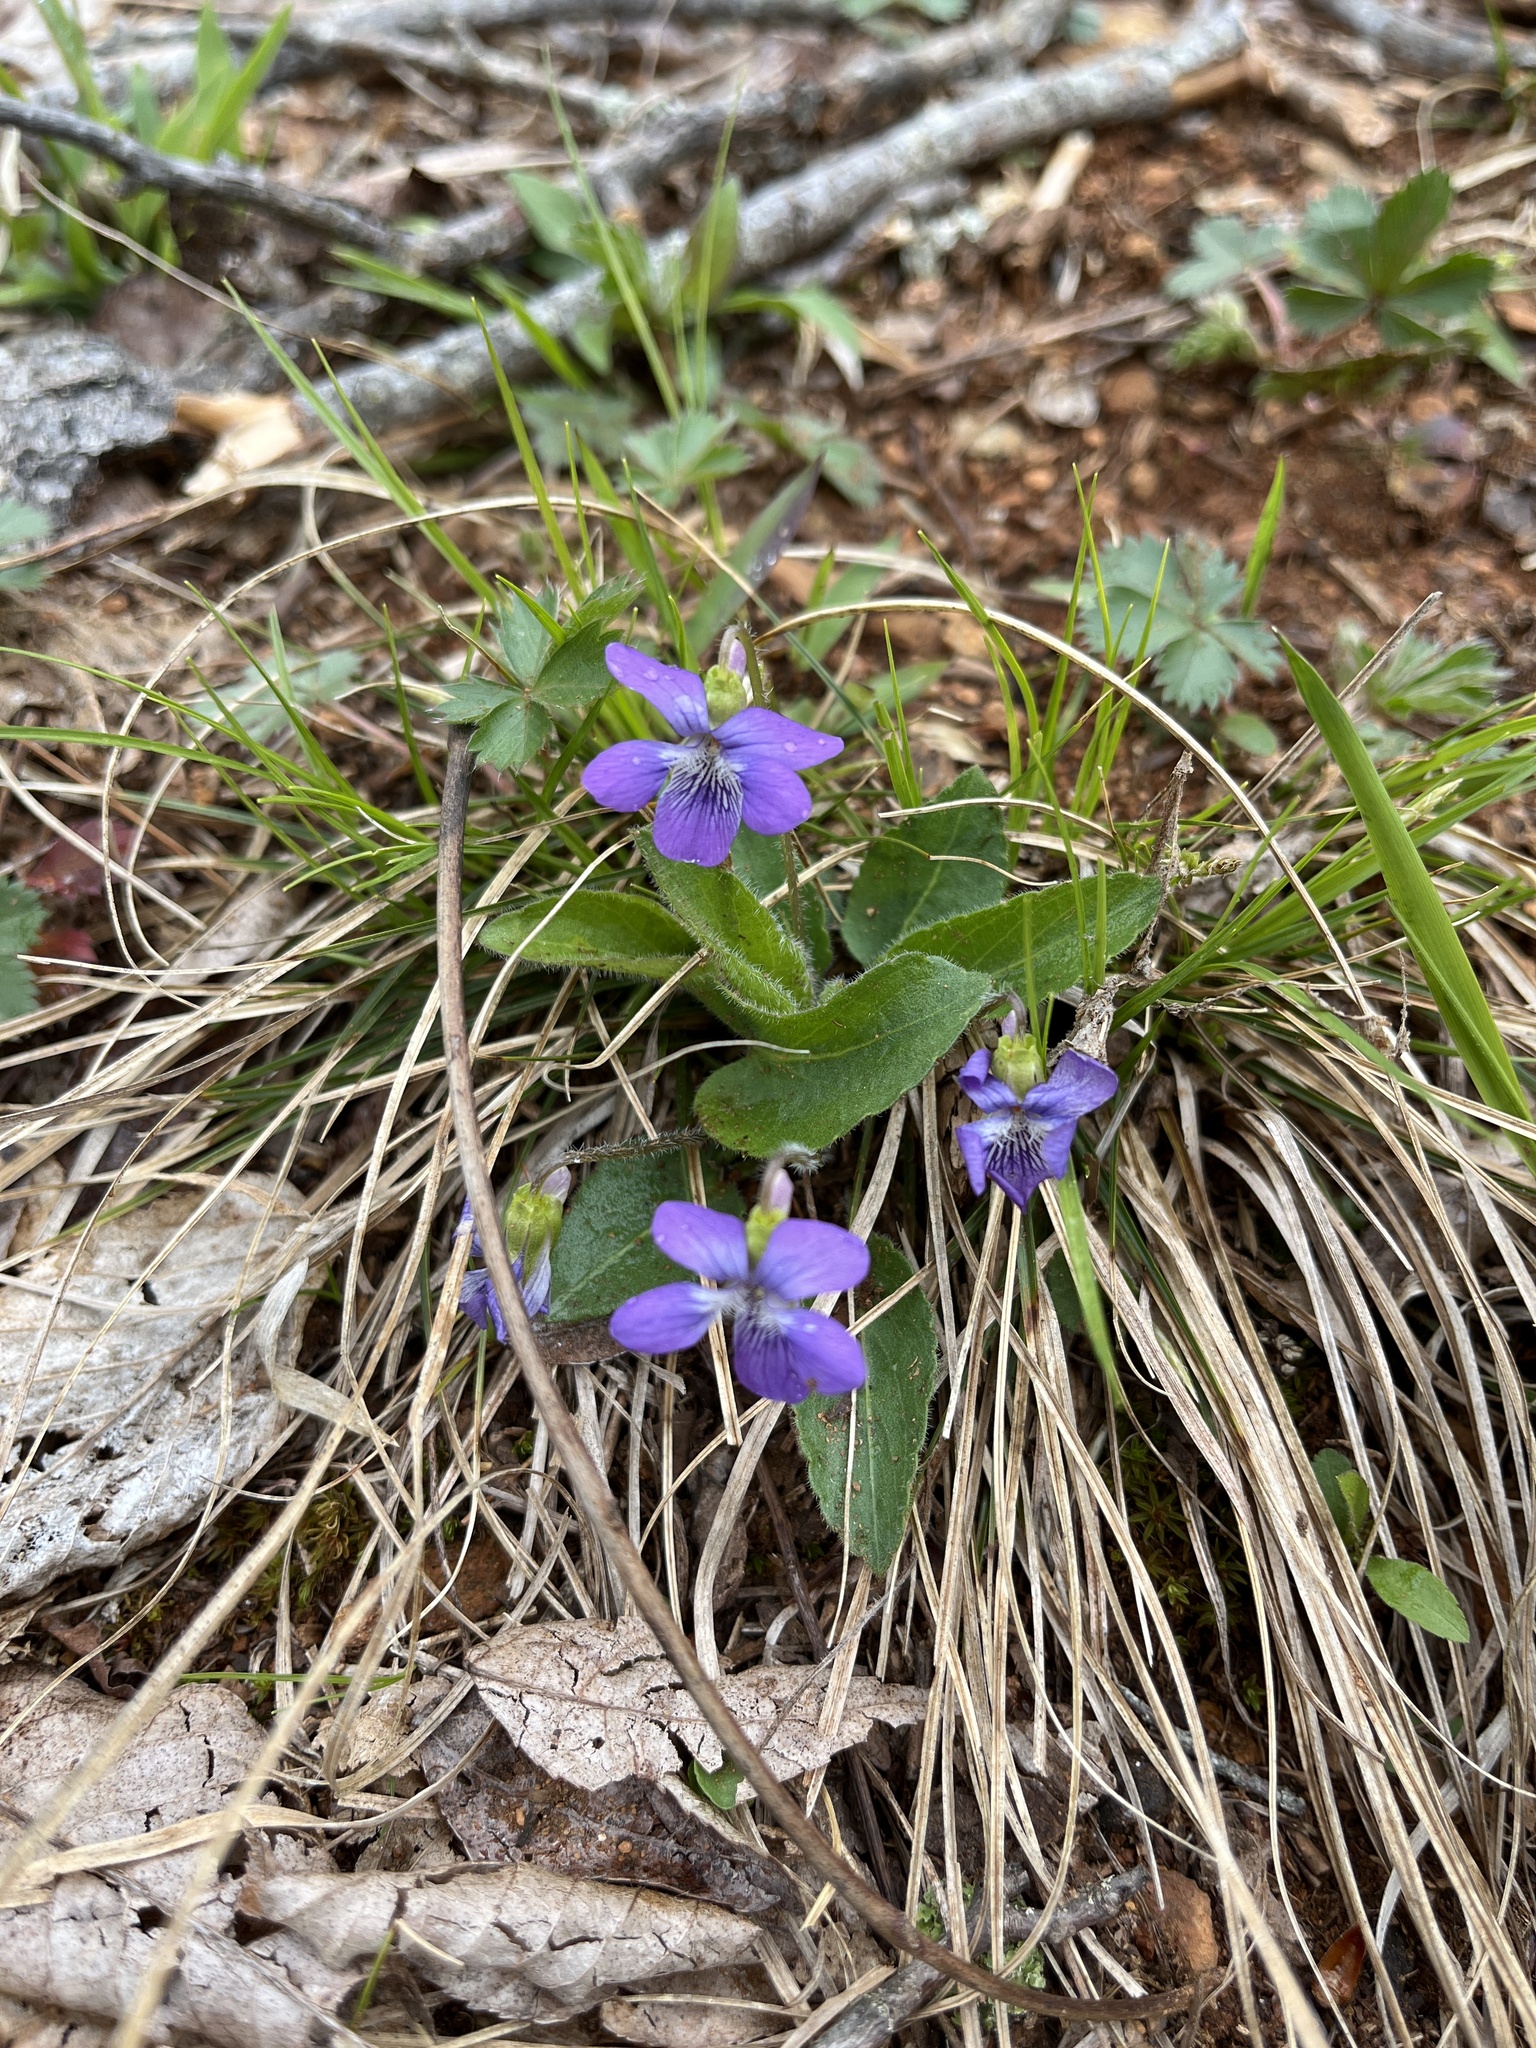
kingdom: Plantae
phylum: Tracheophyta
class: Magnoliopsida
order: Malpighiales
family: Violaceae
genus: Viola
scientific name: Viola fimbriatula
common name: Sand violet
